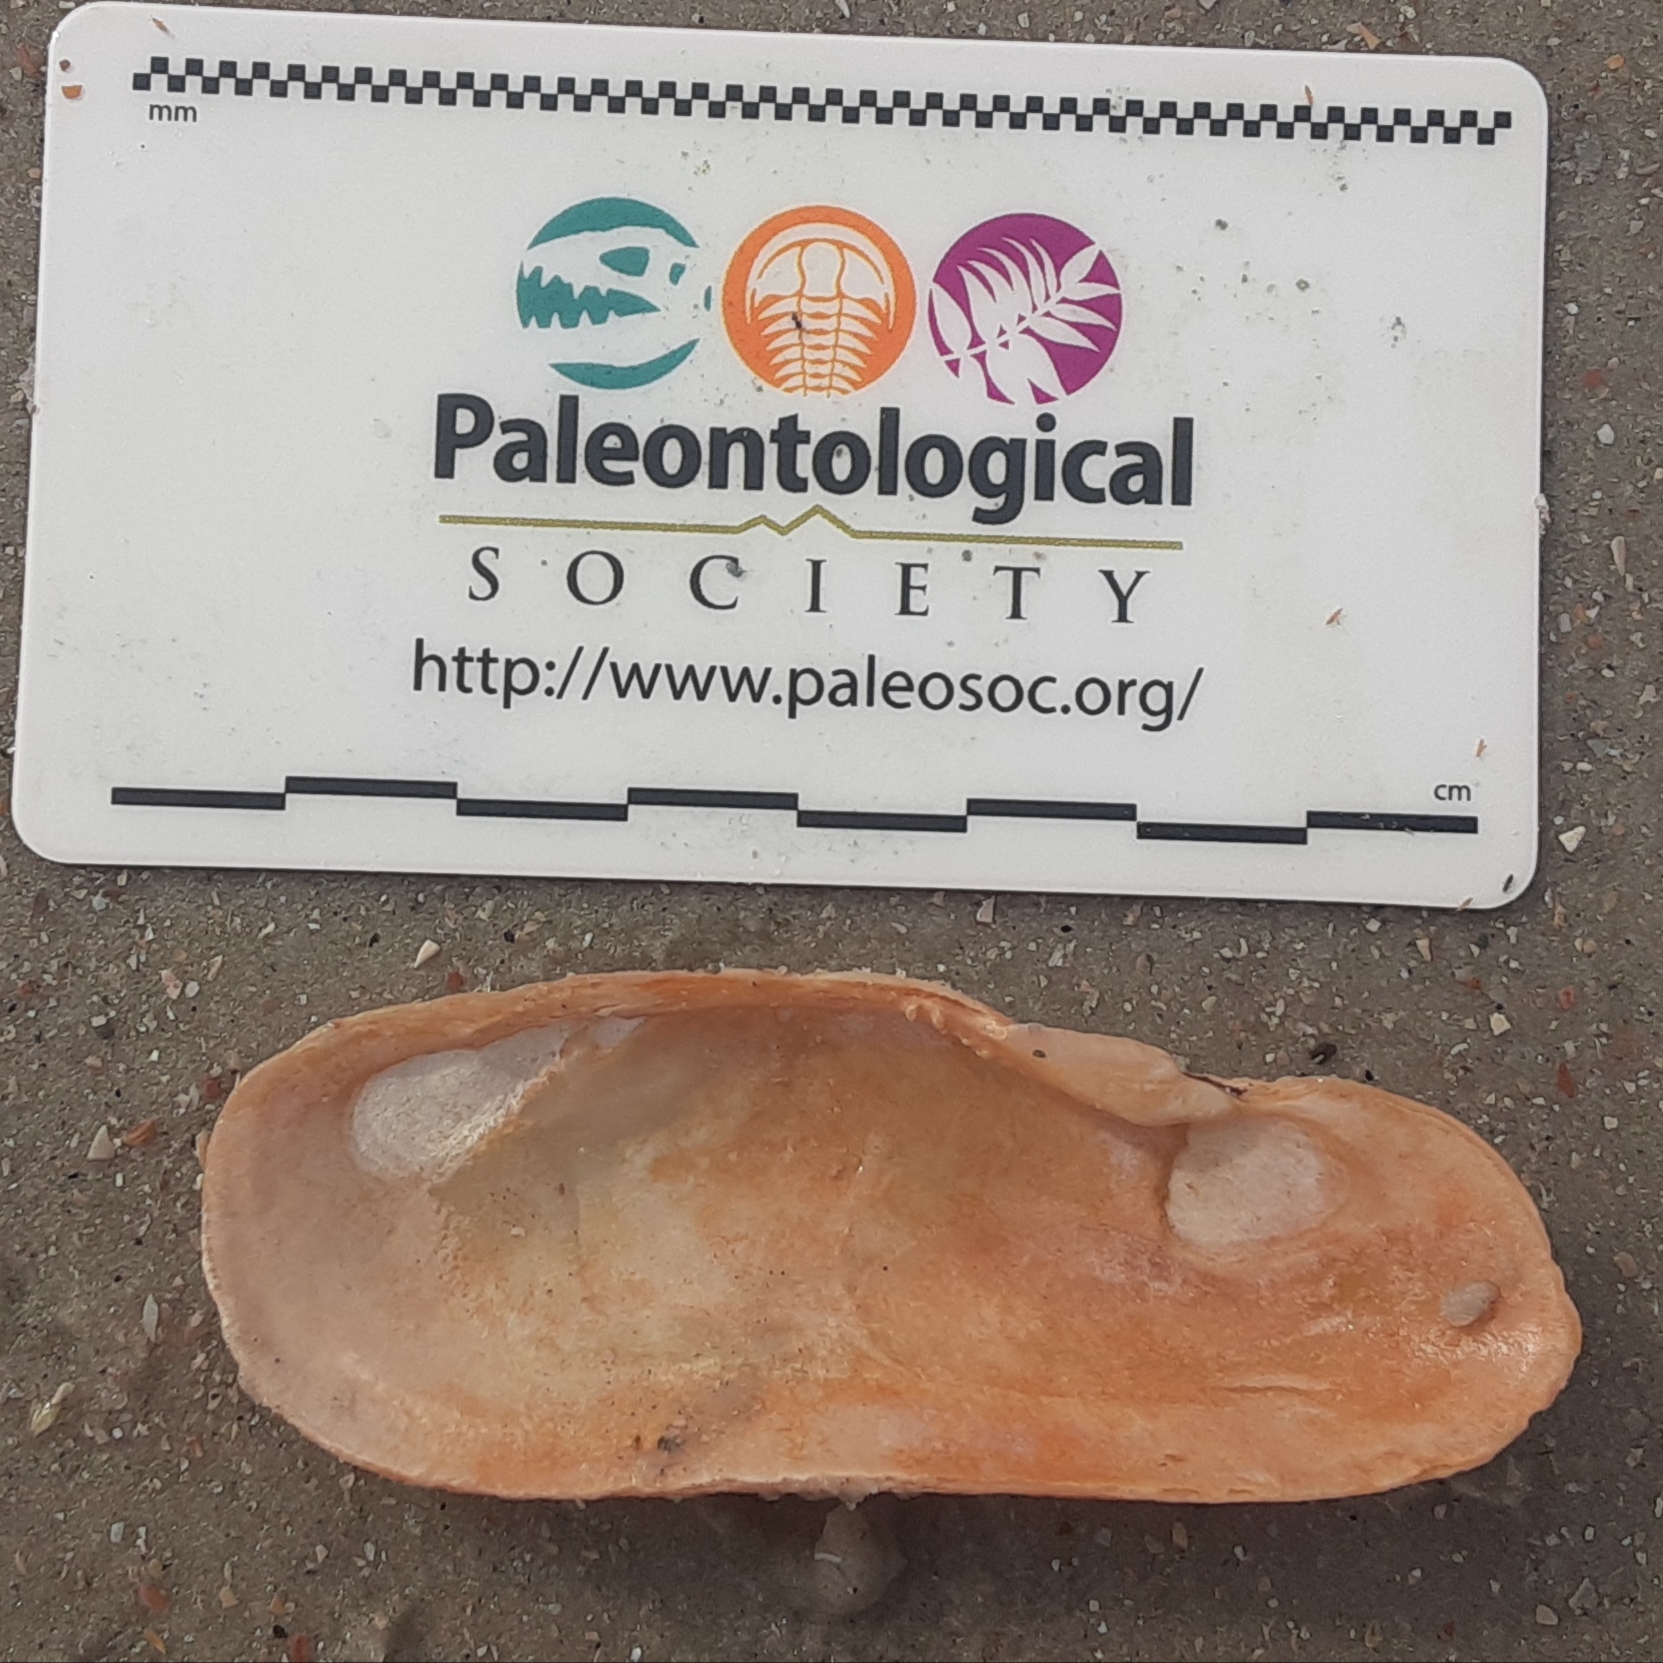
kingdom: Animalia
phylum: Mollusca
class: Bivalvia
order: Cardiida
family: Solecurtidae
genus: Tagelus
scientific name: Tagelus plebeius
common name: Stout tagelus
